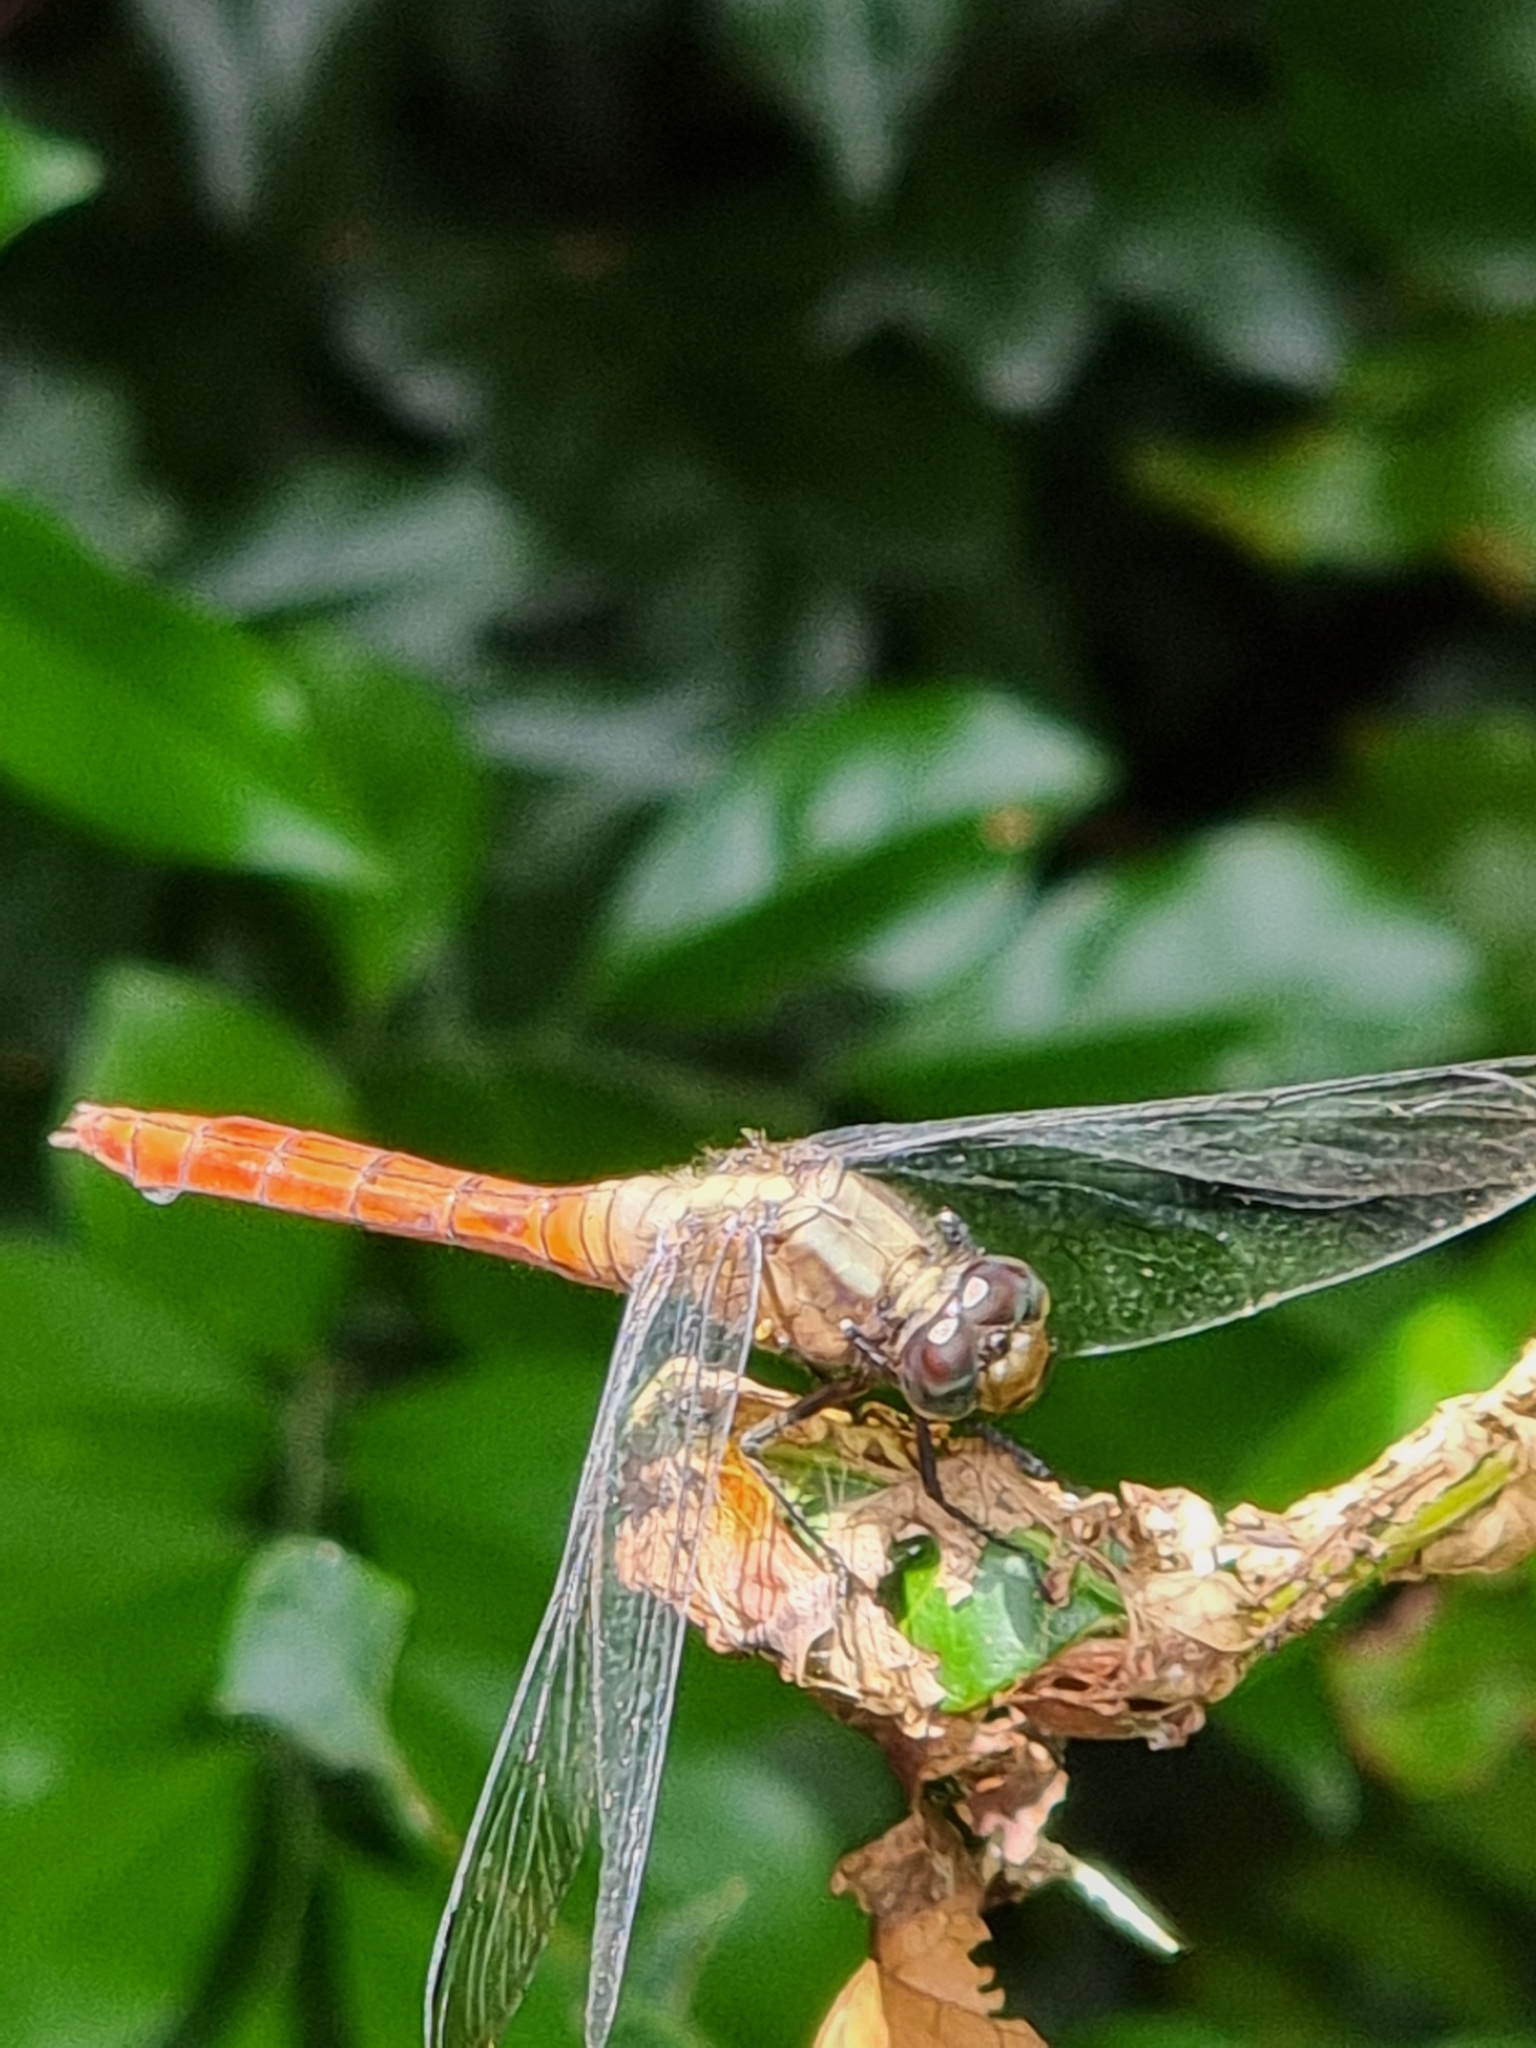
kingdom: Animalia
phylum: Arthropoda
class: Insecta
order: Odonata
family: Libellulidae
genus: Orthetrum
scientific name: Orthetrum villosovittatum
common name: Firery skimmer
